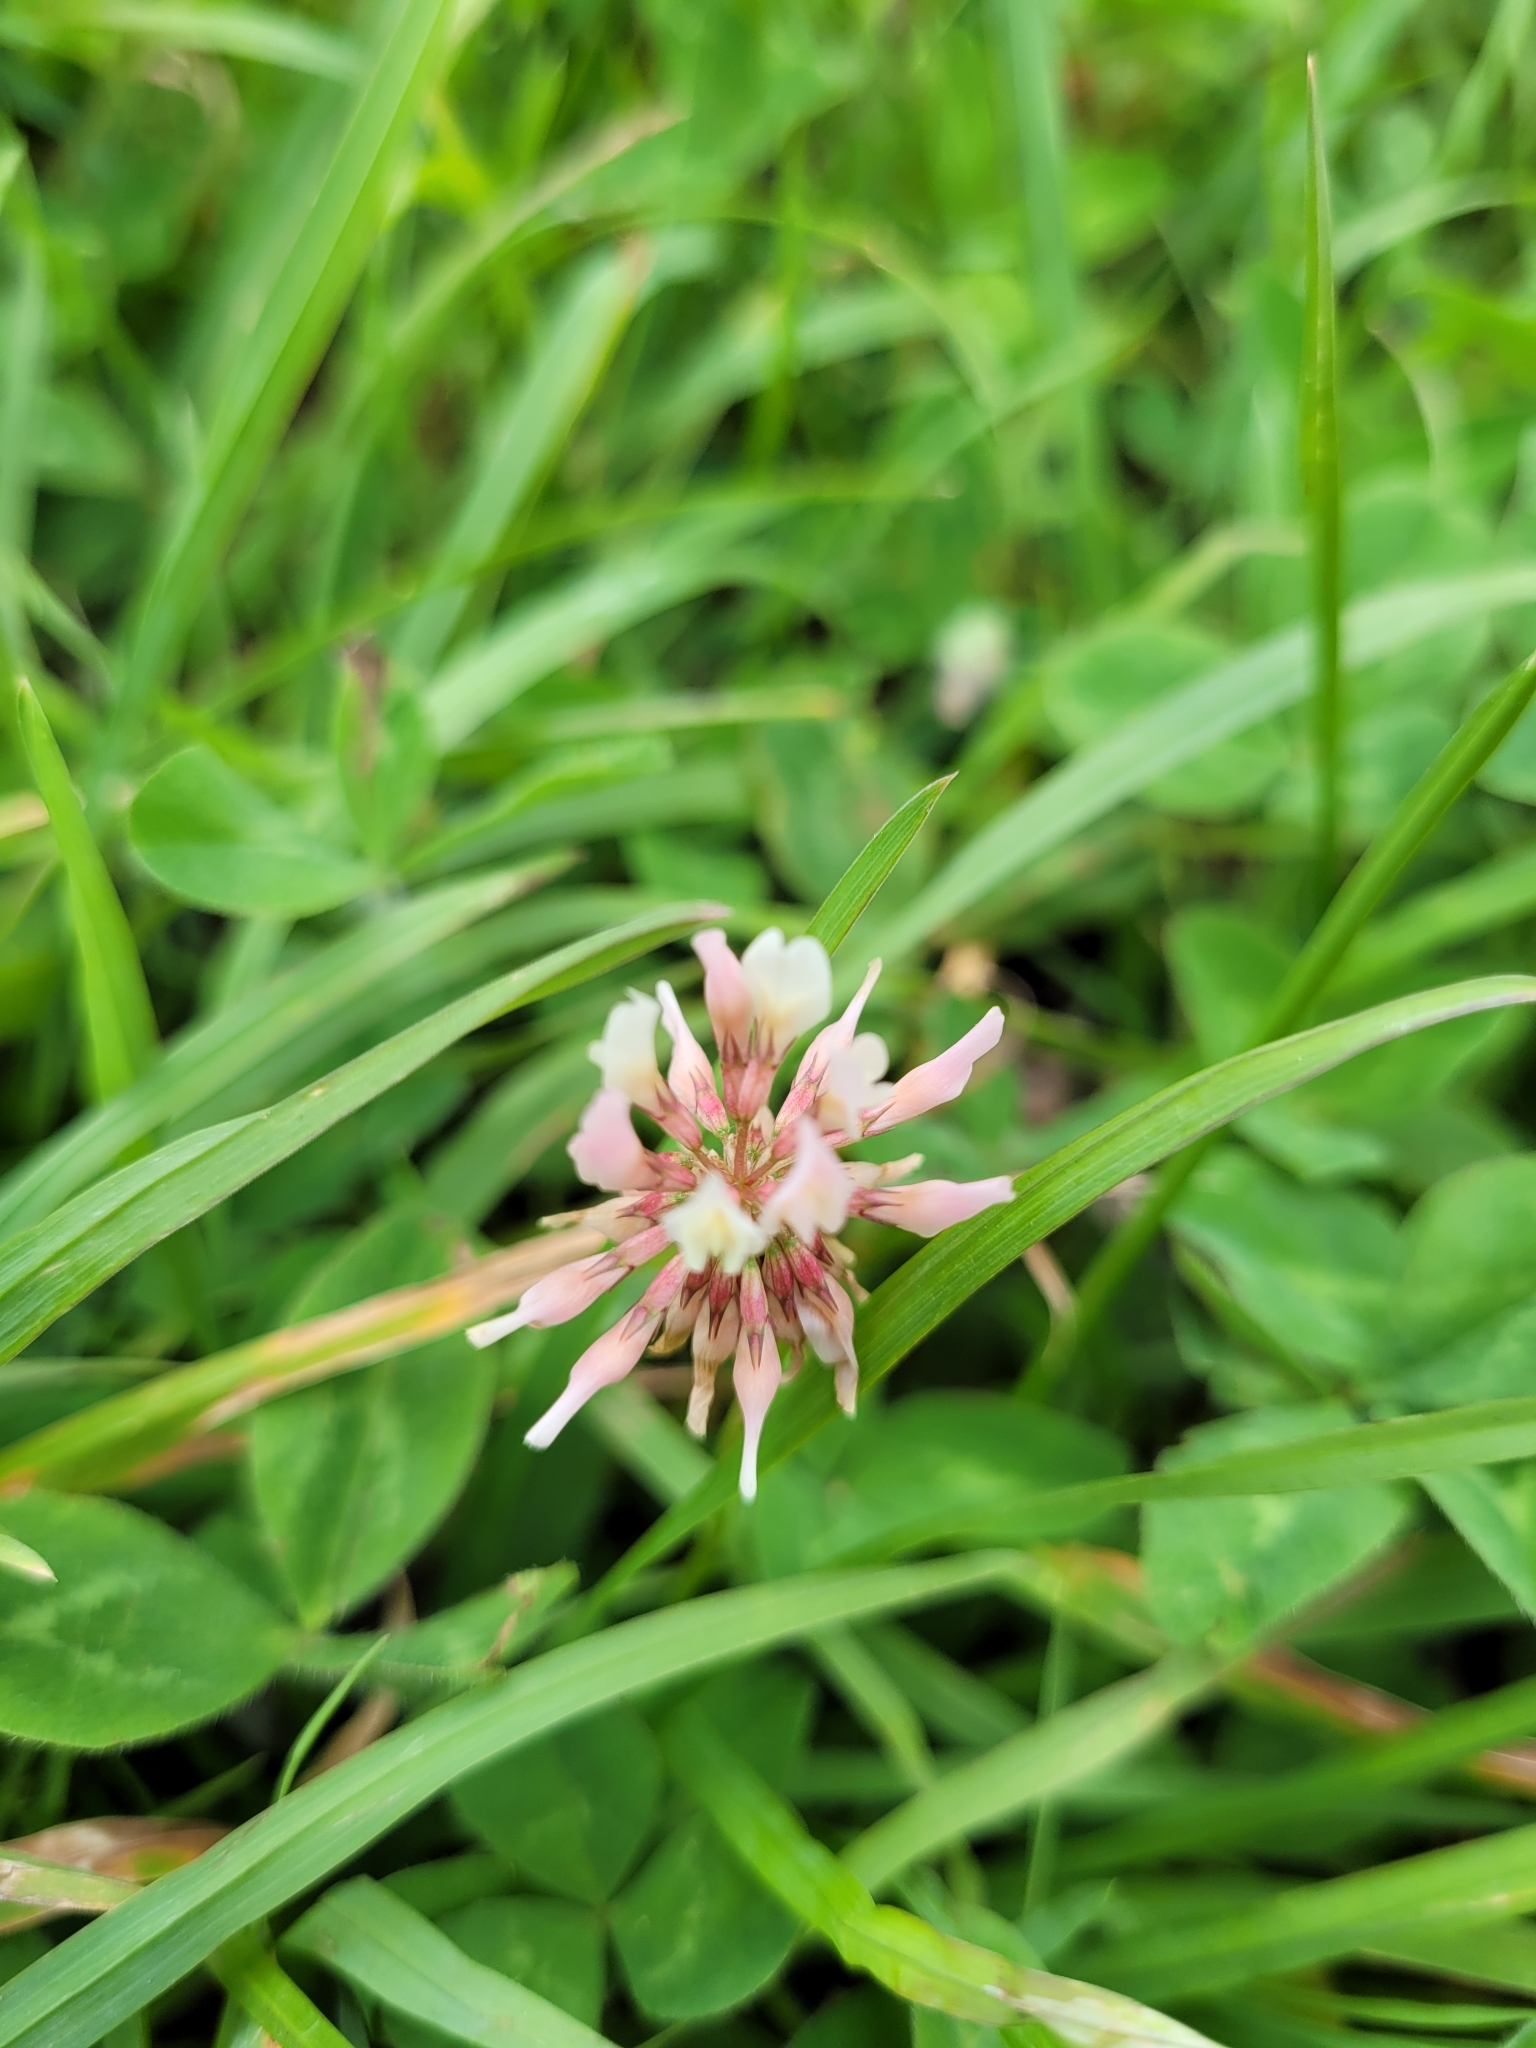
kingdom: Plantae
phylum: Tracheophyta
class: Magnoliopsida
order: Fabales
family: Fabaceae
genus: Trifolium
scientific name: Trifolium repens
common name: White clover
